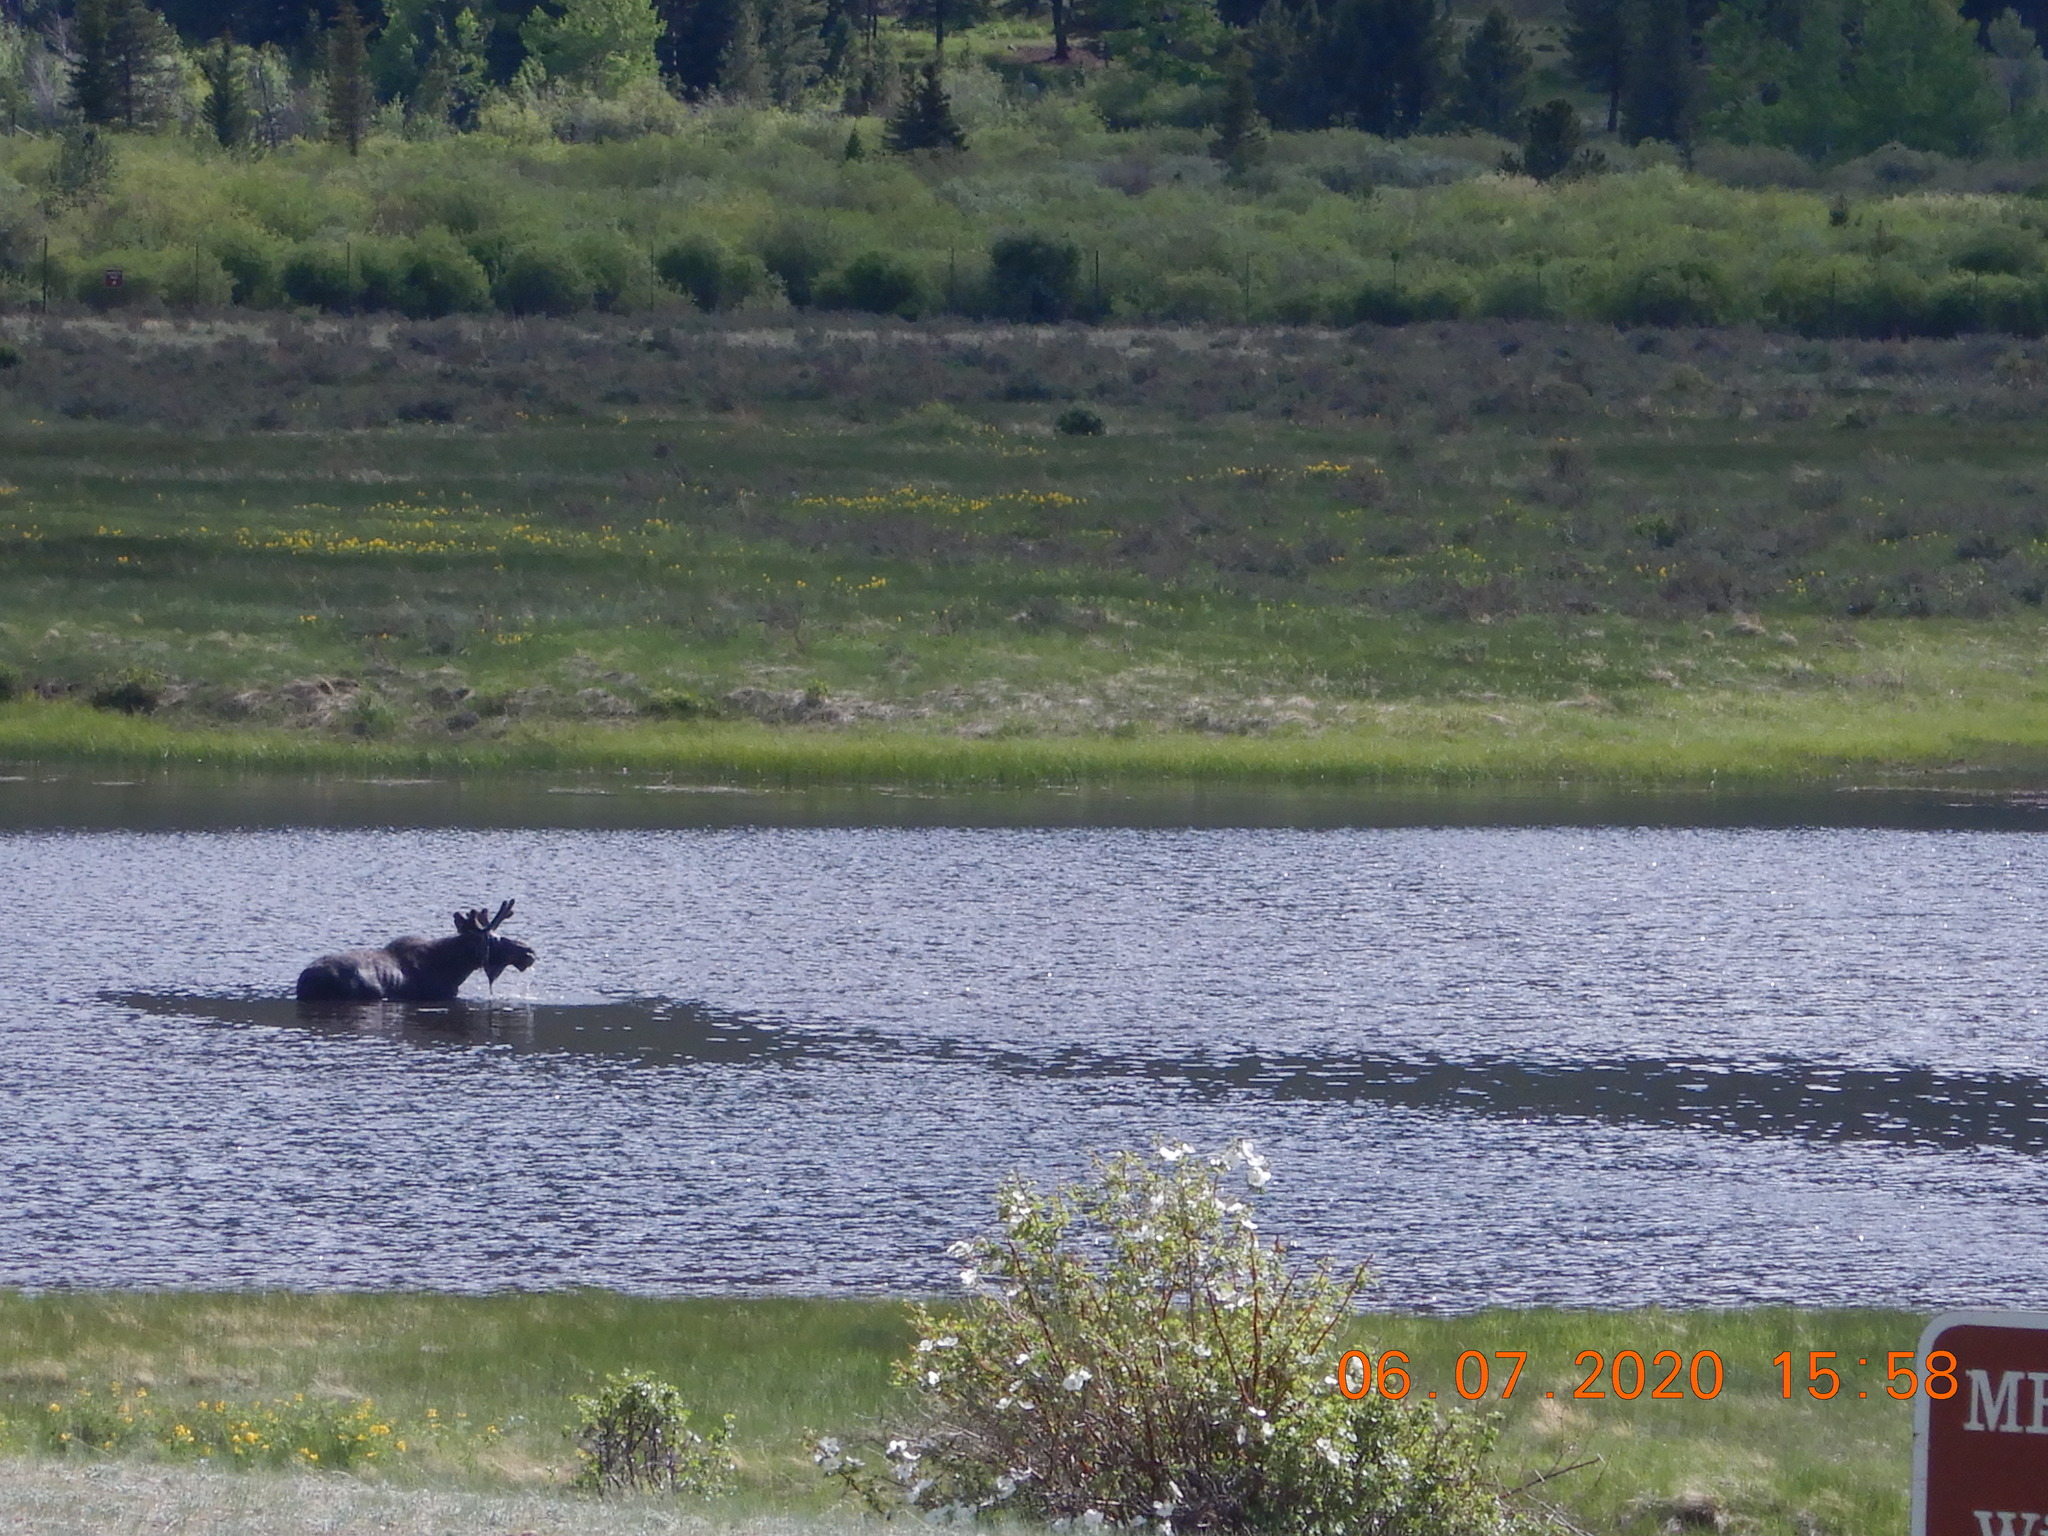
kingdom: Animalia
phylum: Chordata
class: Mammalia
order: Artiodactyla
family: Cervidae
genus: Alces
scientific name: Alces alces
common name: Moose
